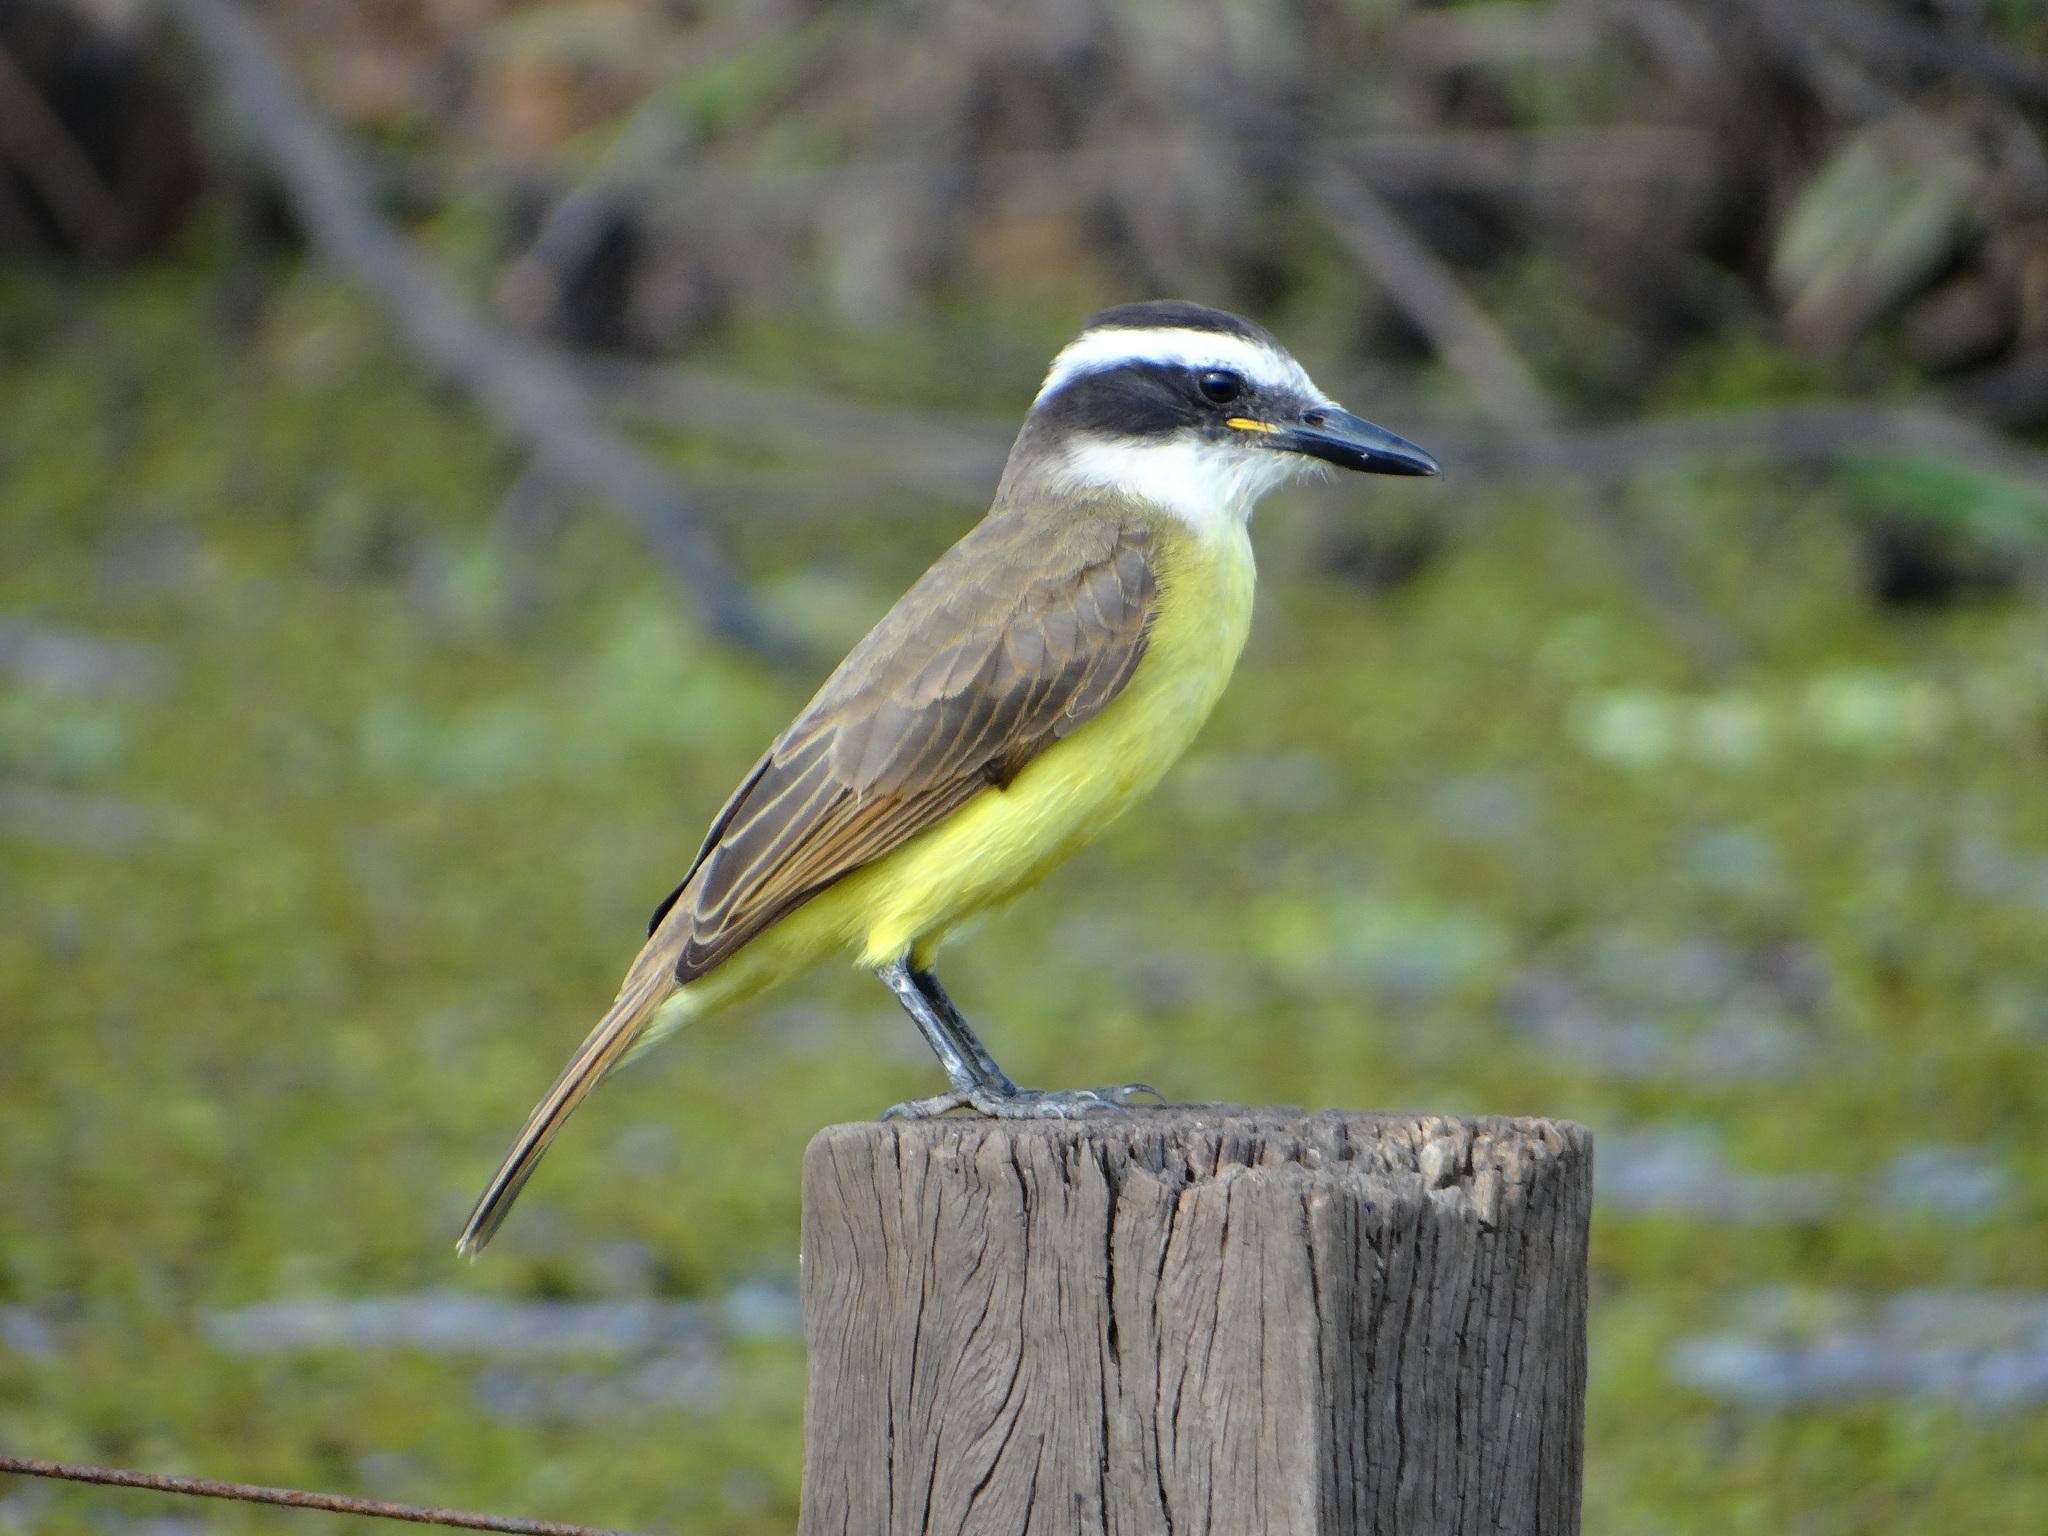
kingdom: Animalia
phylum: Chordata
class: Aves
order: Passeriformes
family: Tyrannidae
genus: Pitangus
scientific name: Pitangus sulphuratus
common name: Great kiskadee
